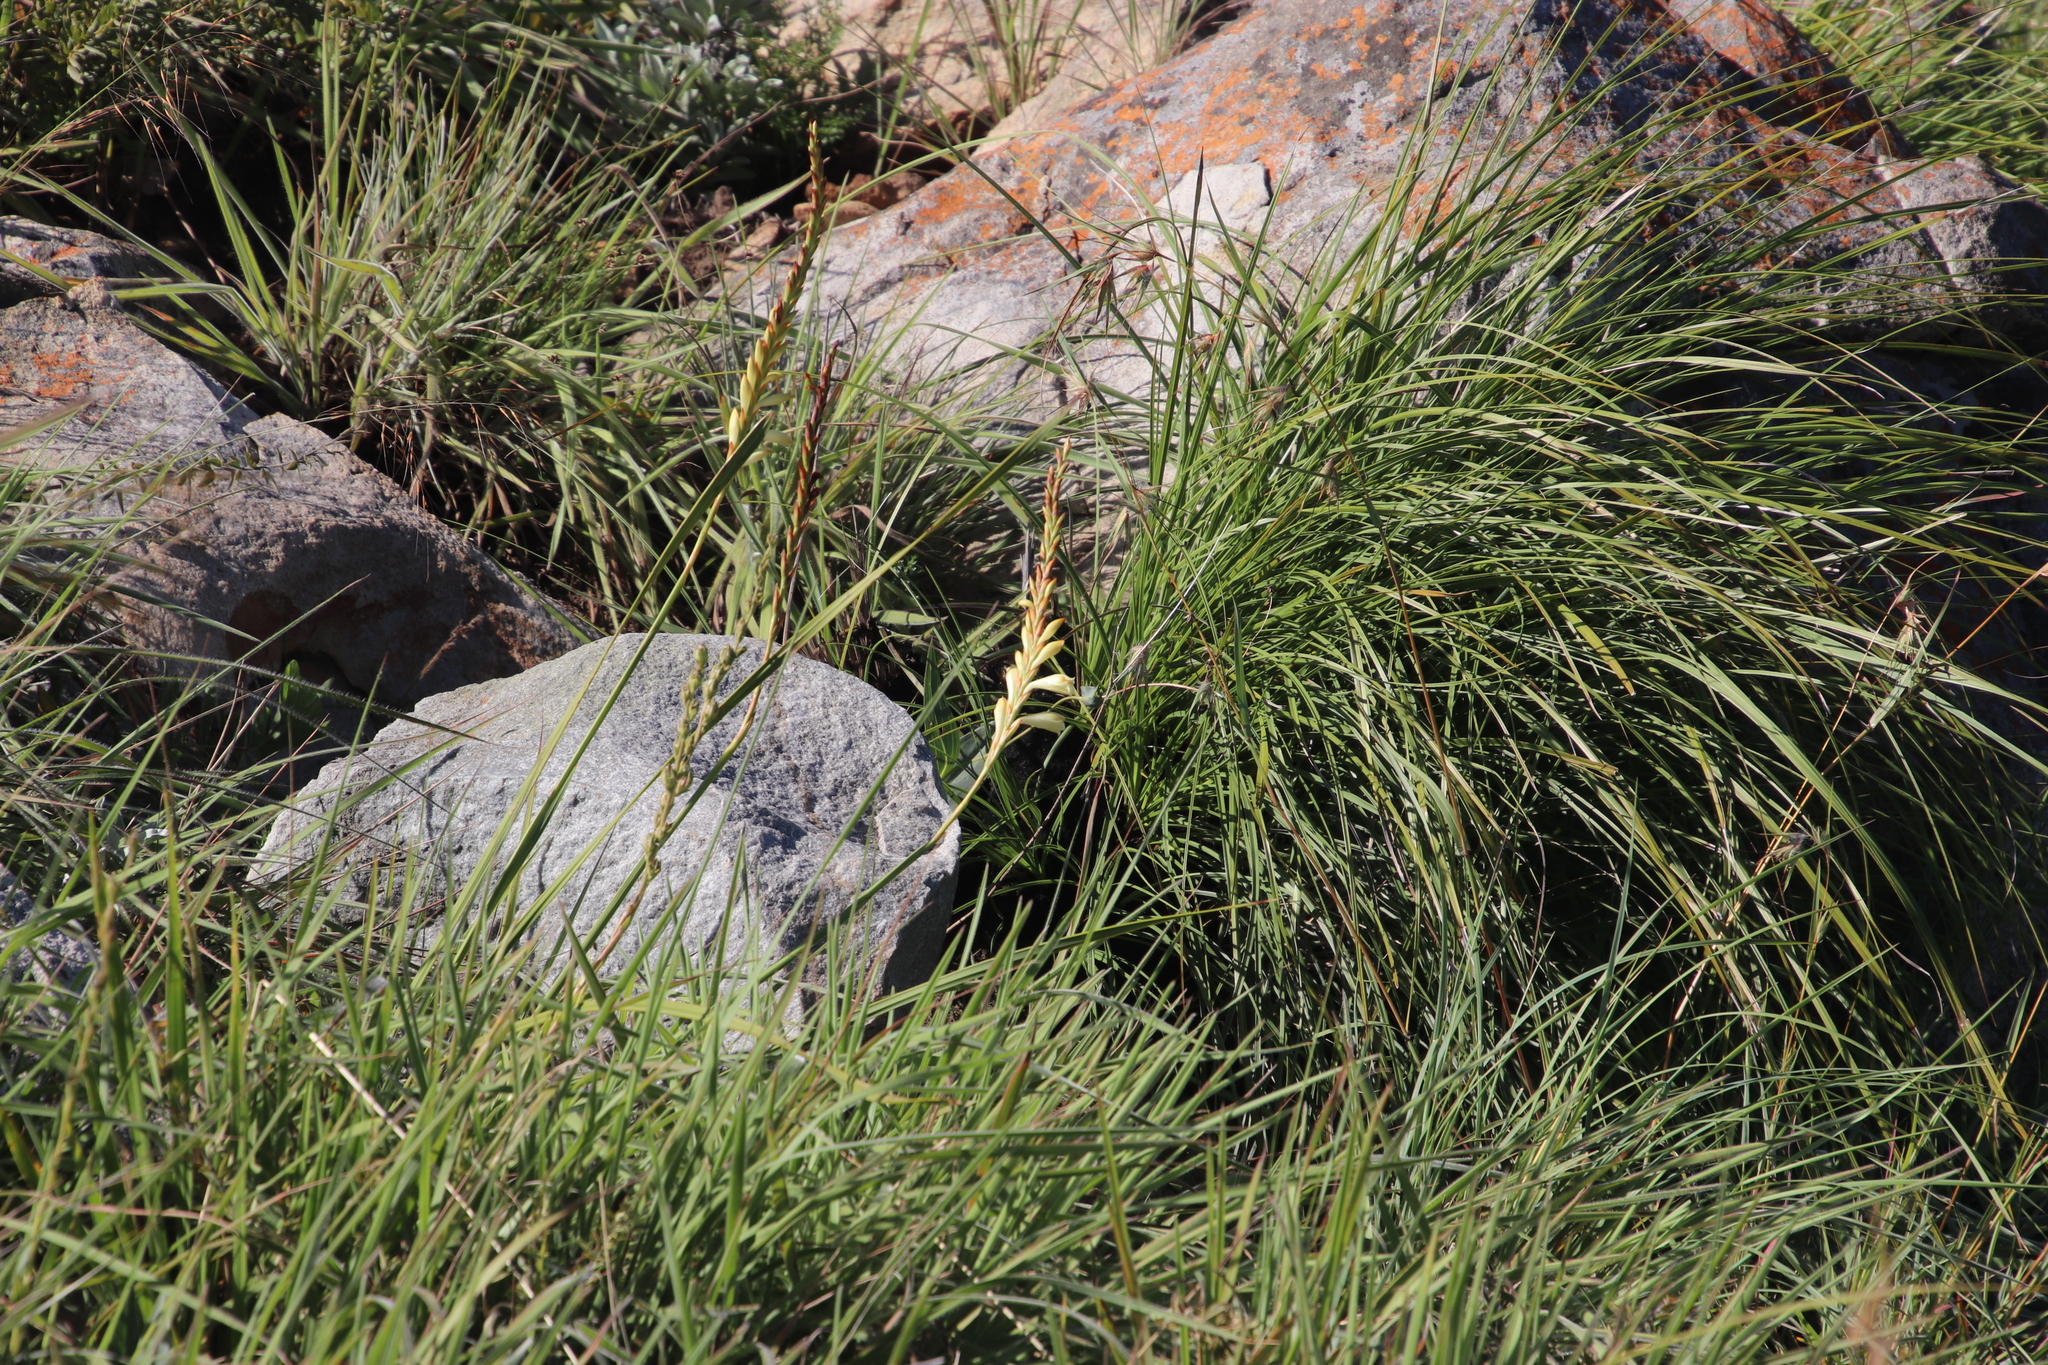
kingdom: Plantae
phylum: Tracheophyta
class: Liliopsida
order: Asparagales
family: Iridaceae
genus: Watsonia
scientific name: Watsonia watsonioides
